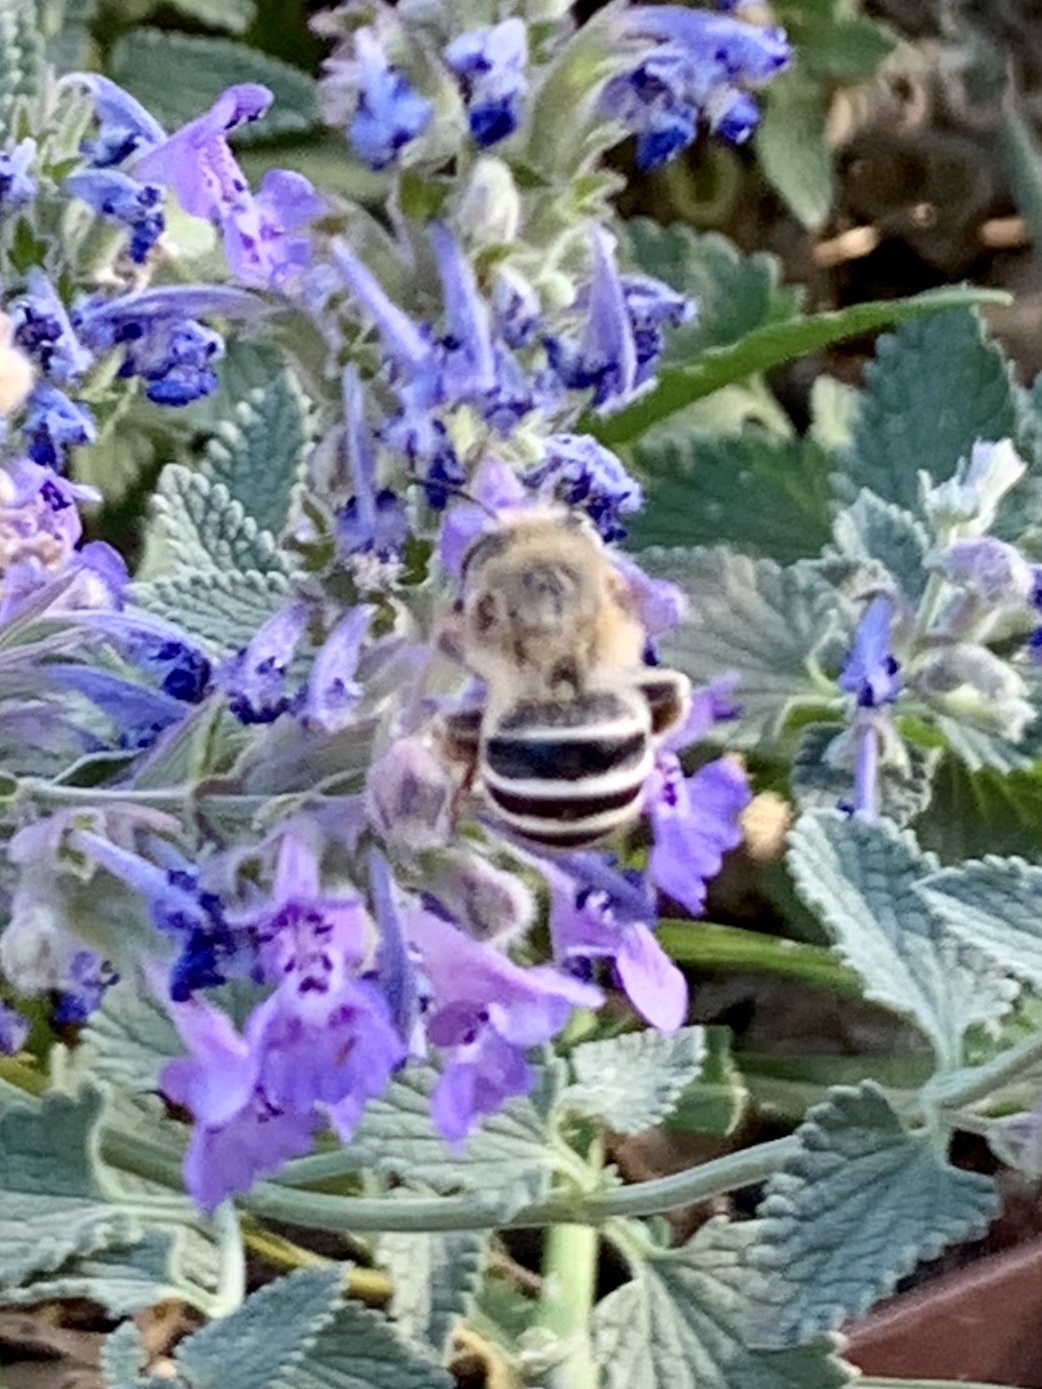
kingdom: Animalia
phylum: Arthropoda
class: Insecta
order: Hymenoptera
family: Apidae
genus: Anthophora
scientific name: Anthophora californica
